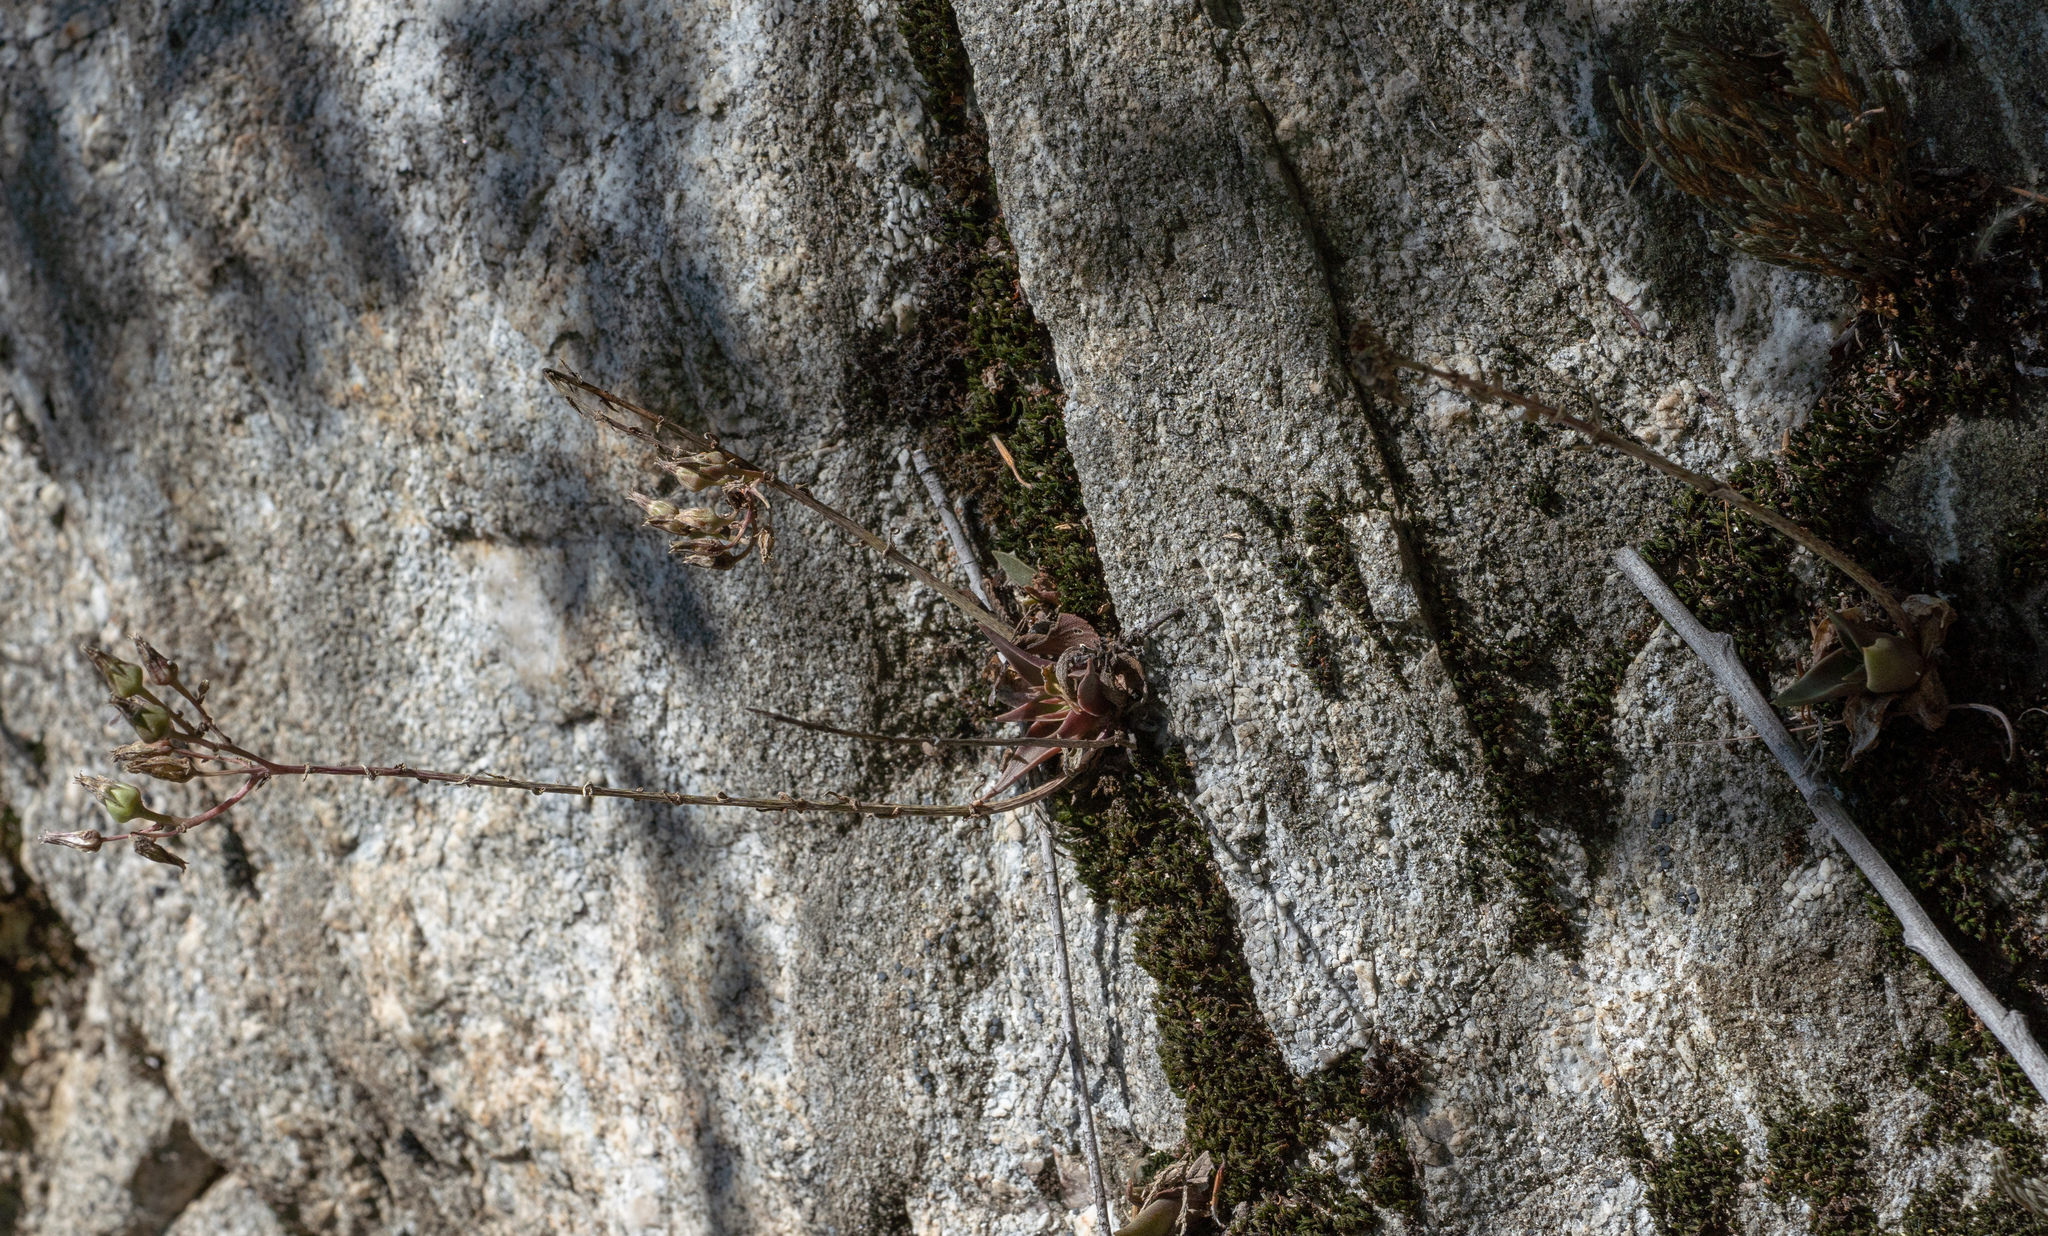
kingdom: Plantae
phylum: Tracheophyta
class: Magnoliopsida
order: Saxifragales
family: Crassulaceae
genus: Dudleya
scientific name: Dudleya
